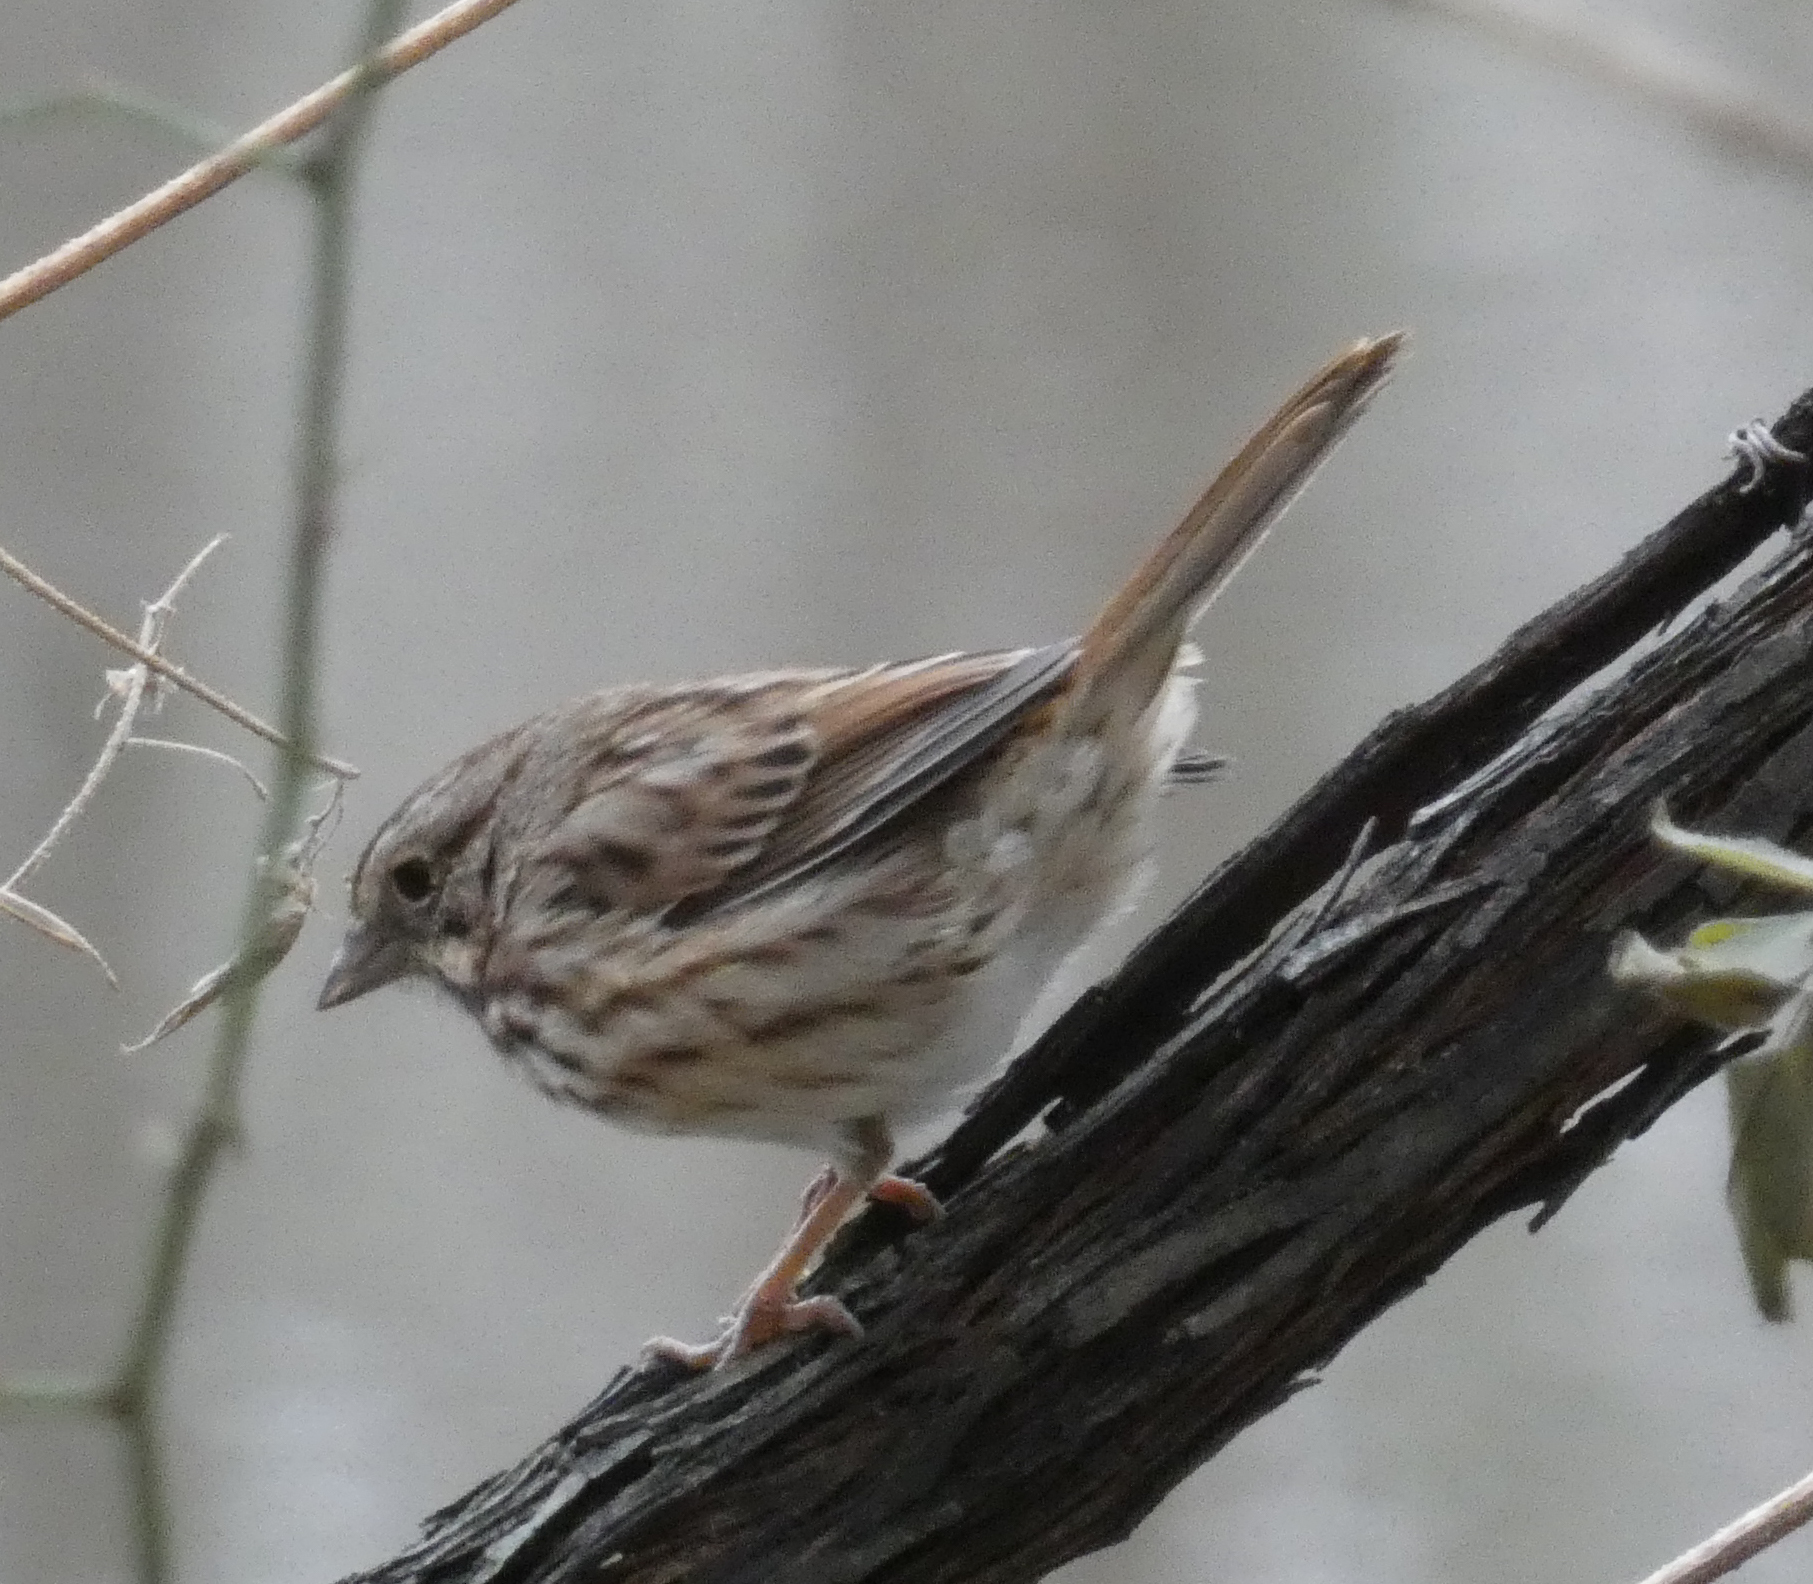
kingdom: Animalia
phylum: Chordata
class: Aves
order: Passeriformes
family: Passerellidae
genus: Melospiza
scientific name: Melospiza melodia
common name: Song sparrow
